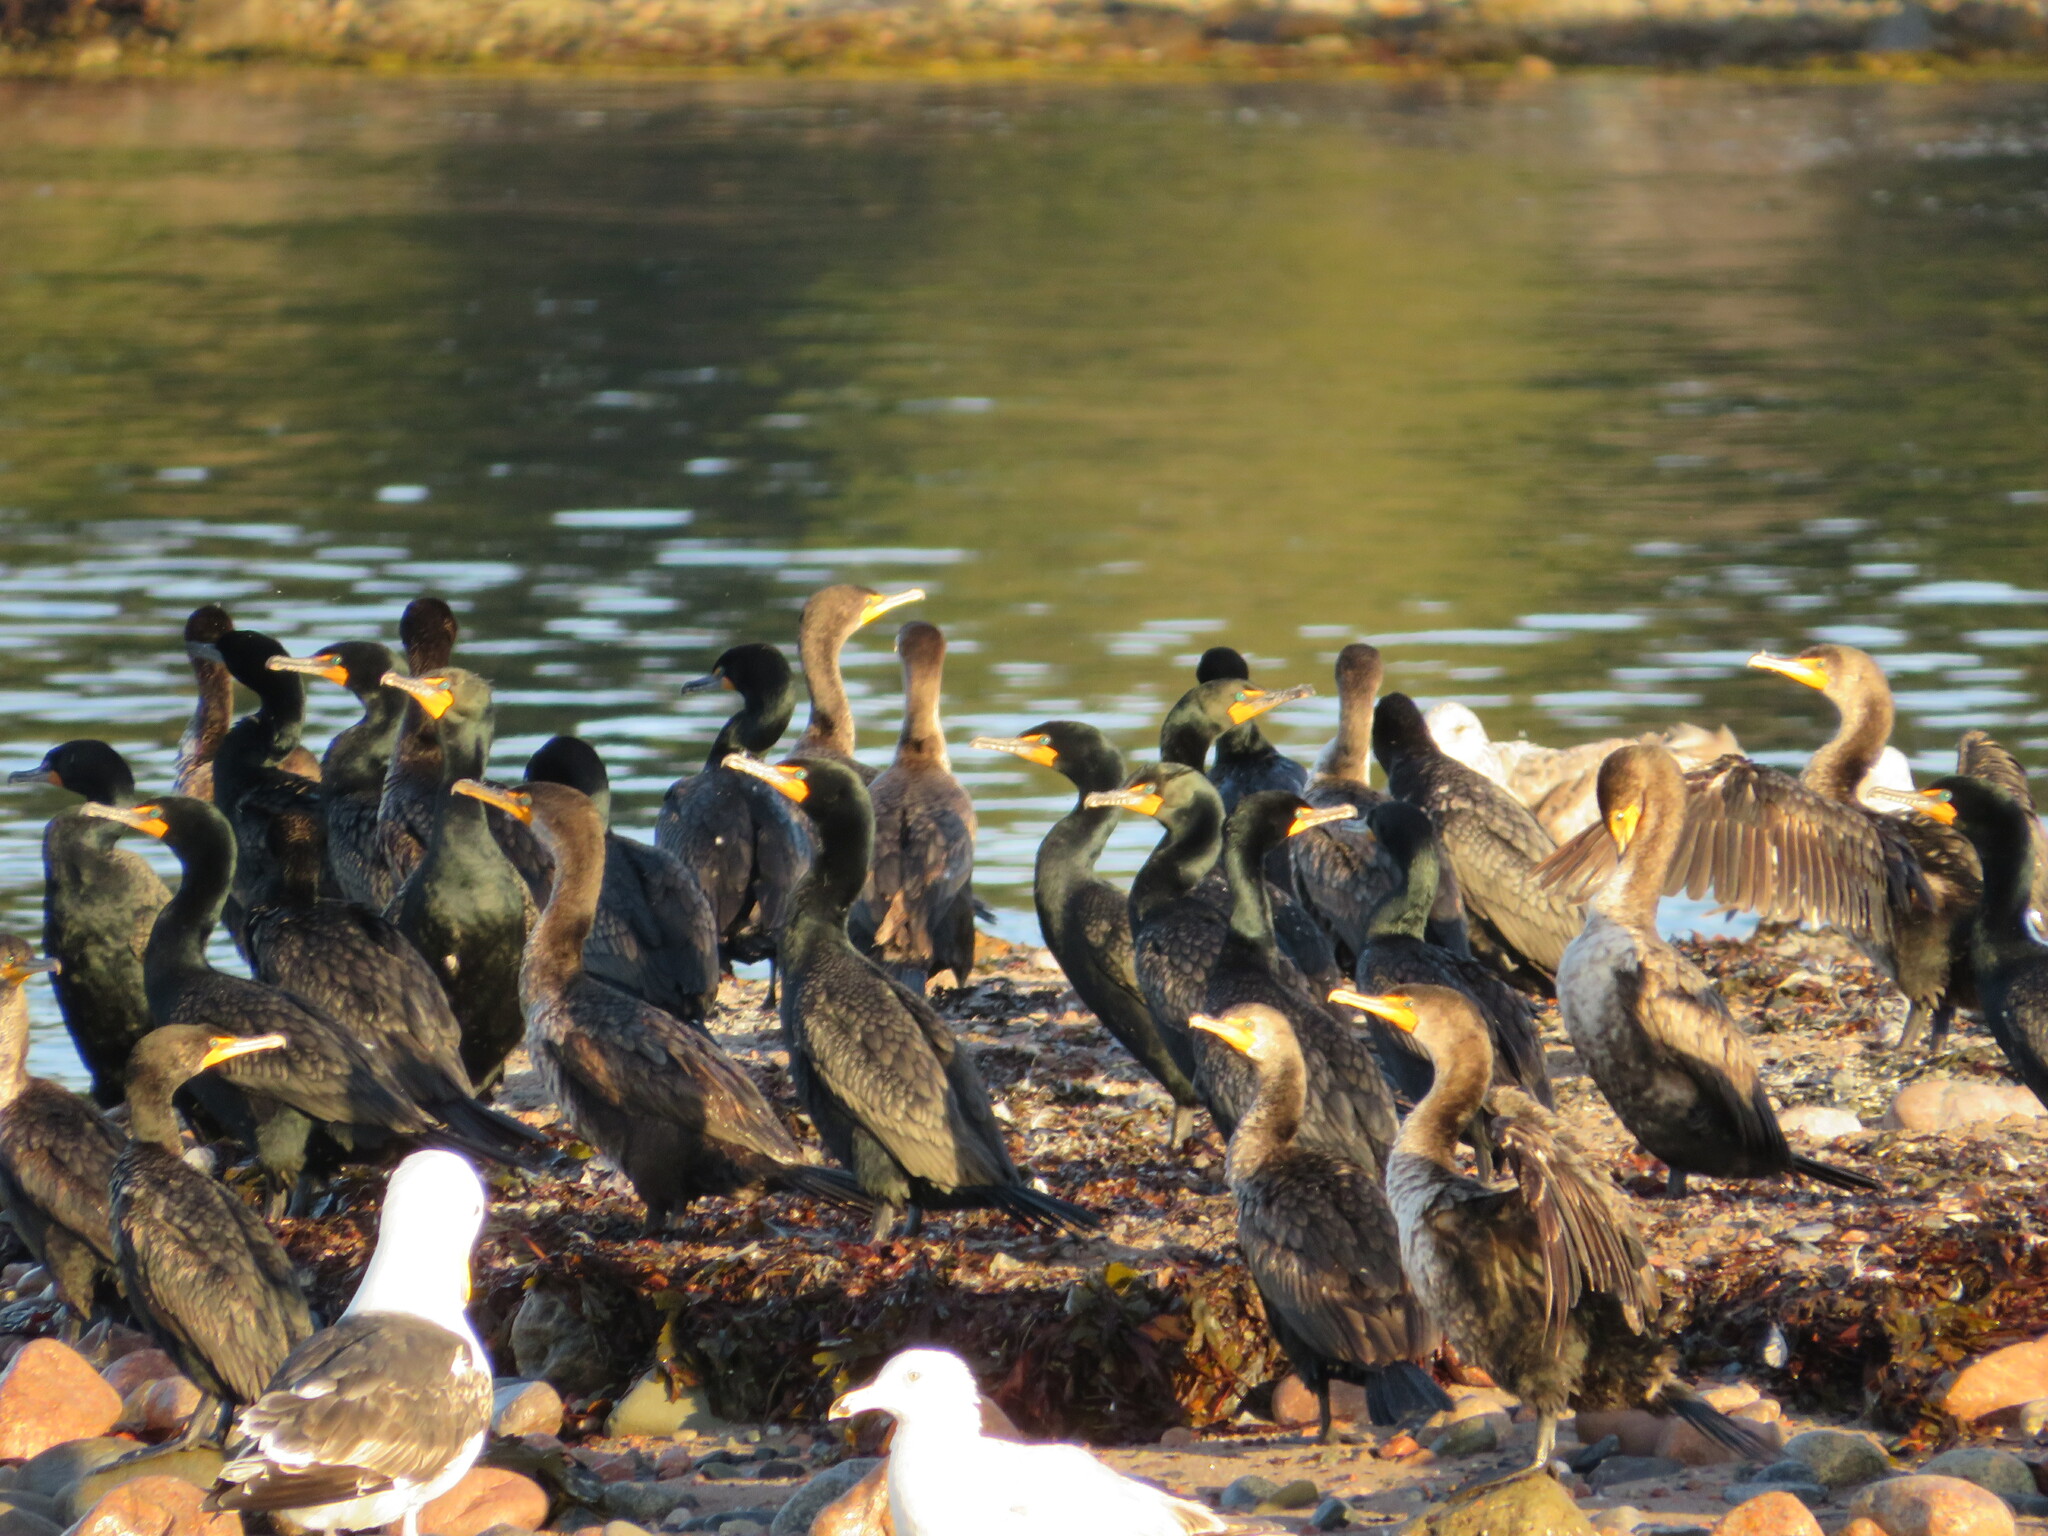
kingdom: Animalia
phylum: Chordata
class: Aves
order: Suliformes
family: Phalacrocoracidae
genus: Phalacrocorax
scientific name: Phalacrocorax auritus
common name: Double-crested cormorant
